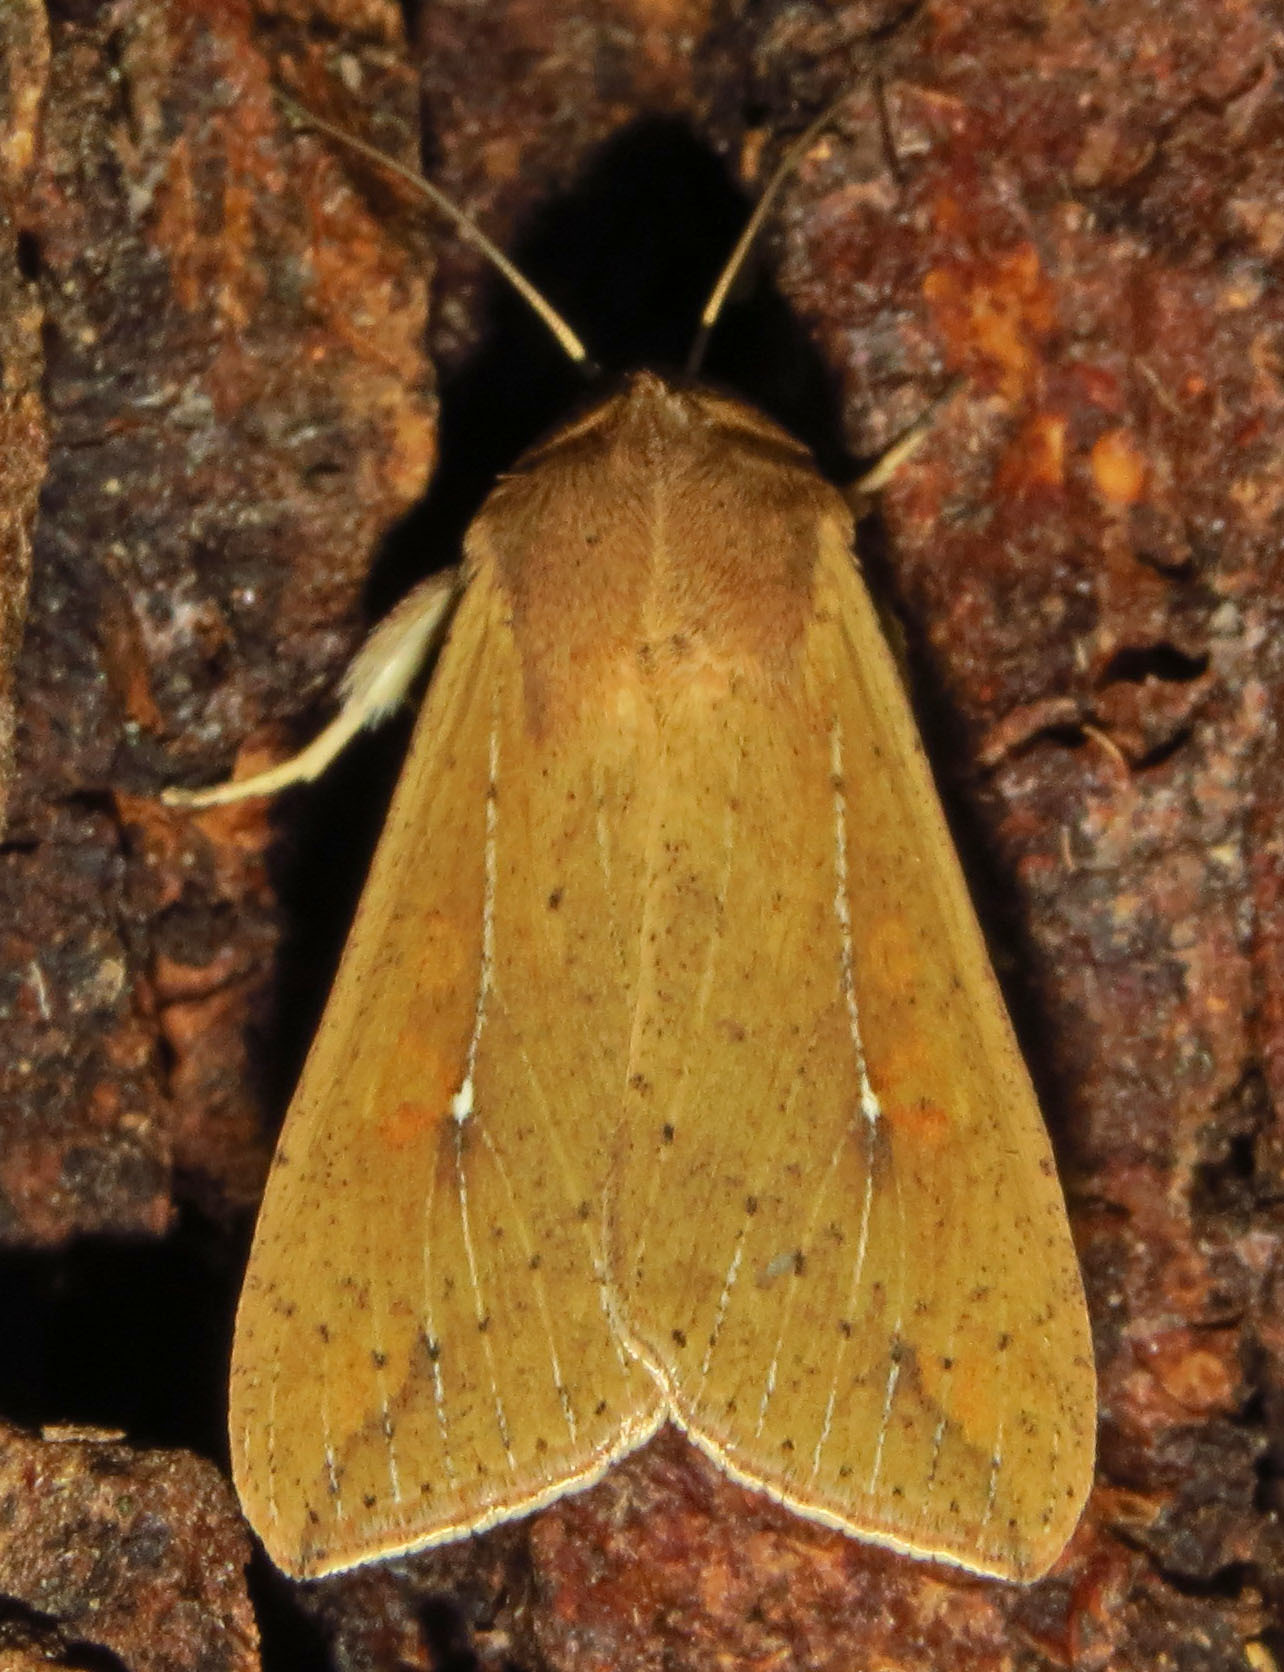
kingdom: Animalia
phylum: Arthropoda
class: Insecta
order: Lepidoptera
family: Noctuidae
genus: Mythimna
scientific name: Mythimna unipuncta
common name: White-speck
